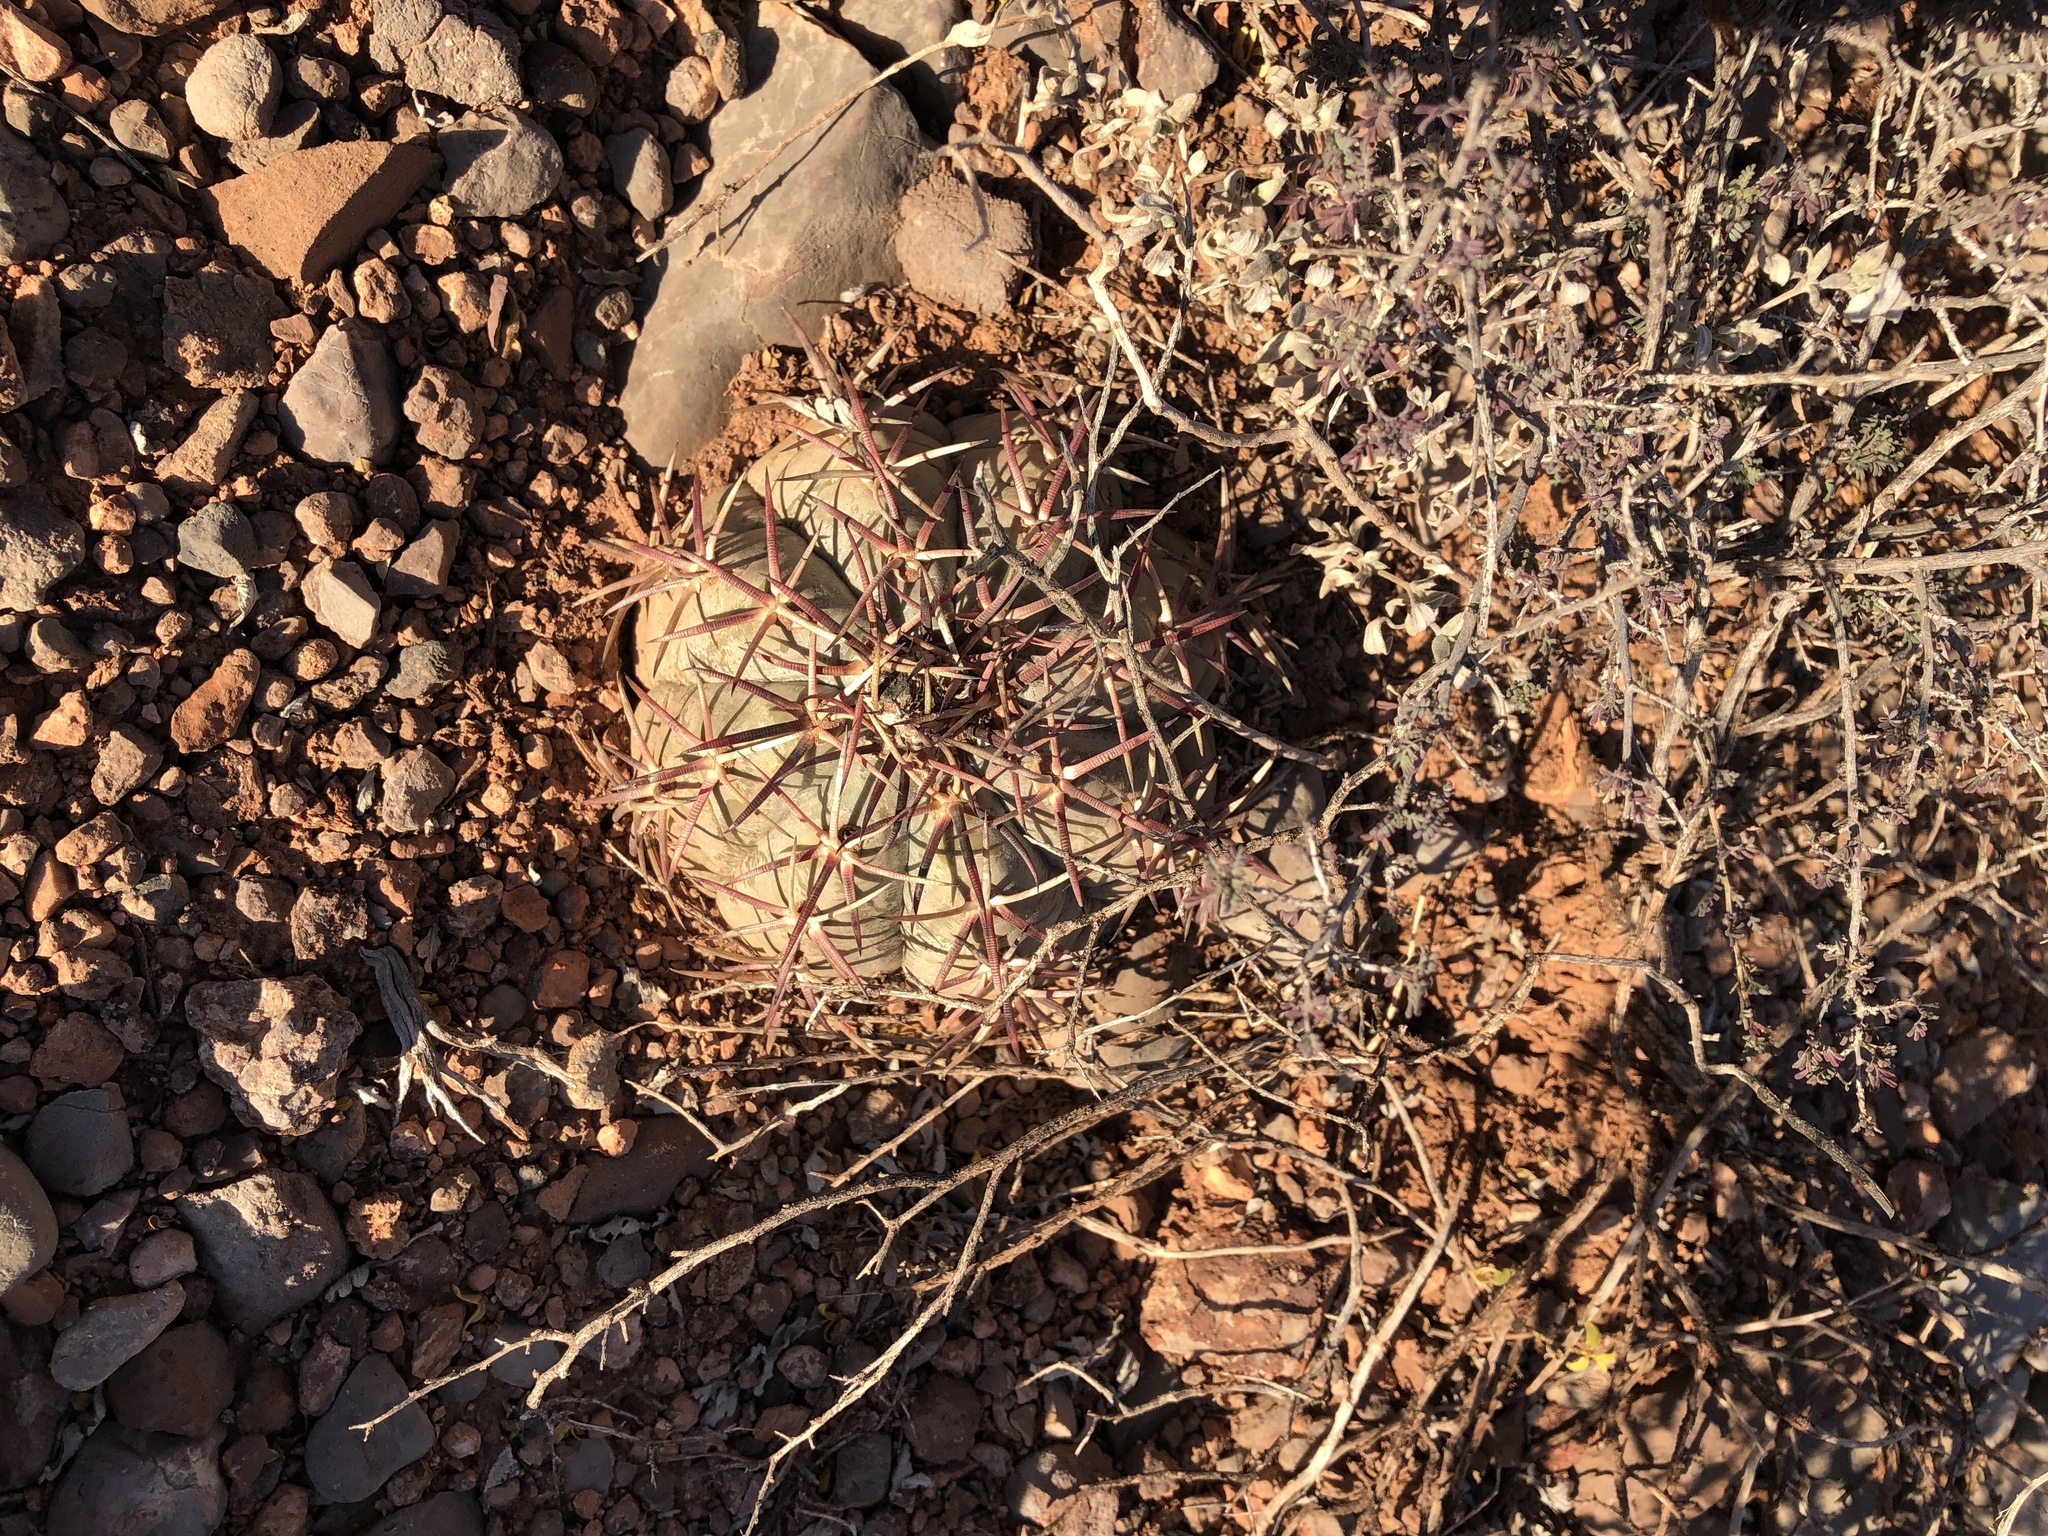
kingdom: Plantae
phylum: Tracheophyta
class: Magnoliopsida
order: Caryophyllales
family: Cactaceae
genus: Echinocactus
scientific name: Echinocactus horizonthalonius
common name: Devilshead
